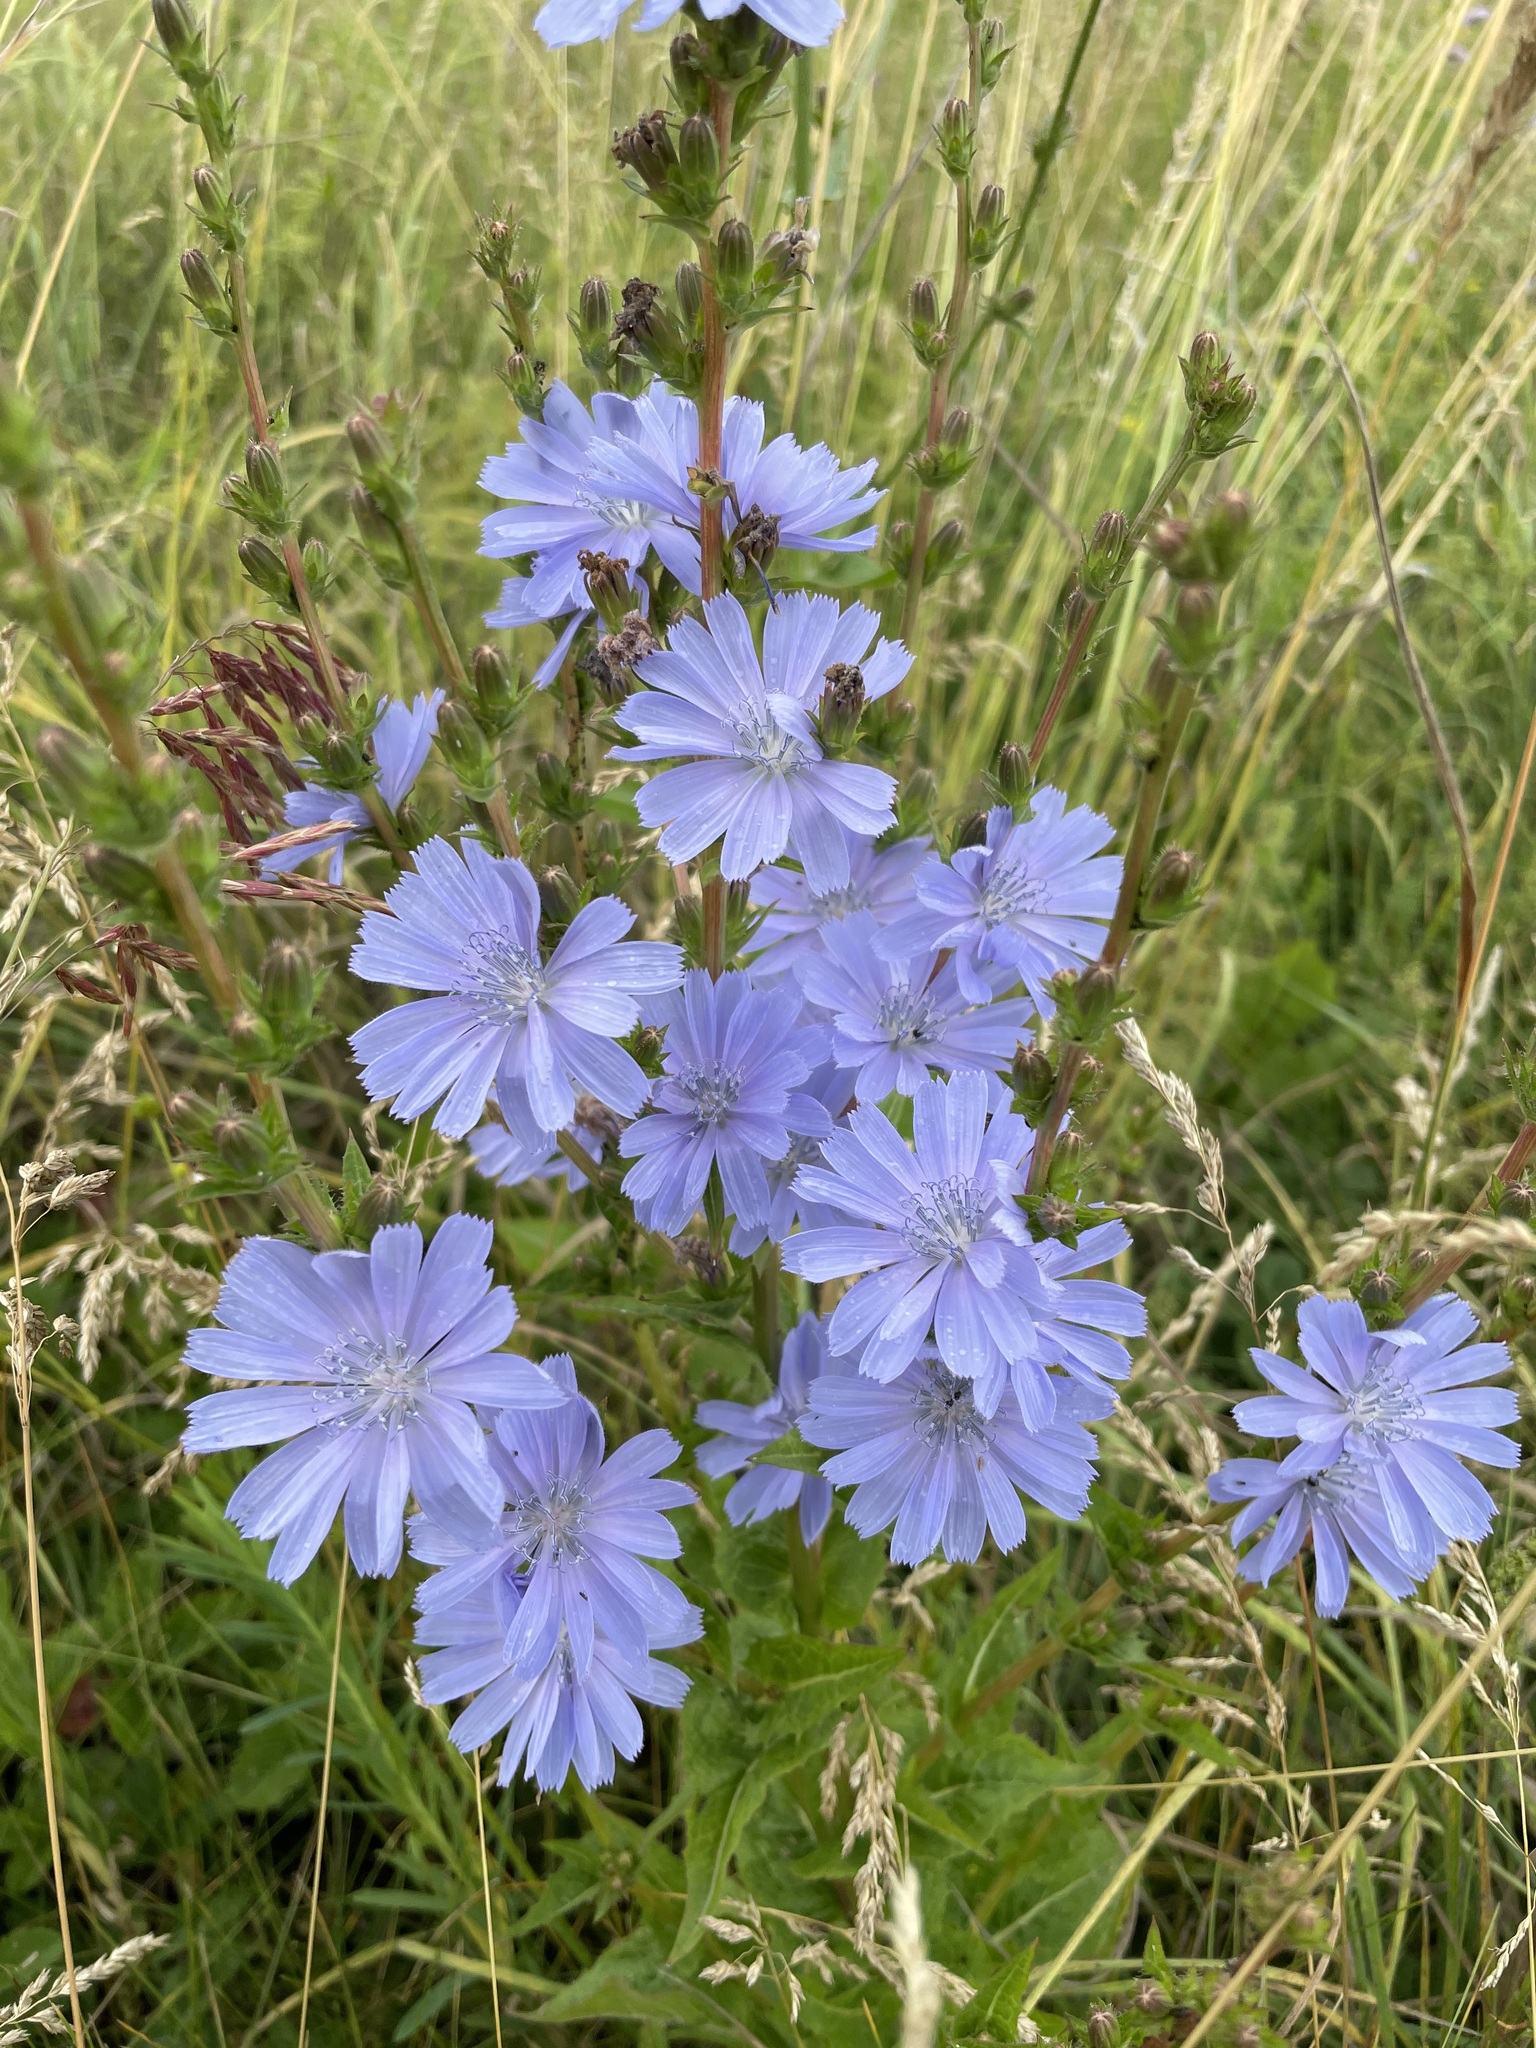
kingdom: Plantae
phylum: Tracheophyta
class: Magnoliopsida
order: Asterales
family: Asteraceae
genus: Cichorium
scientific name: Cichorium intybus
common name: Chicory
